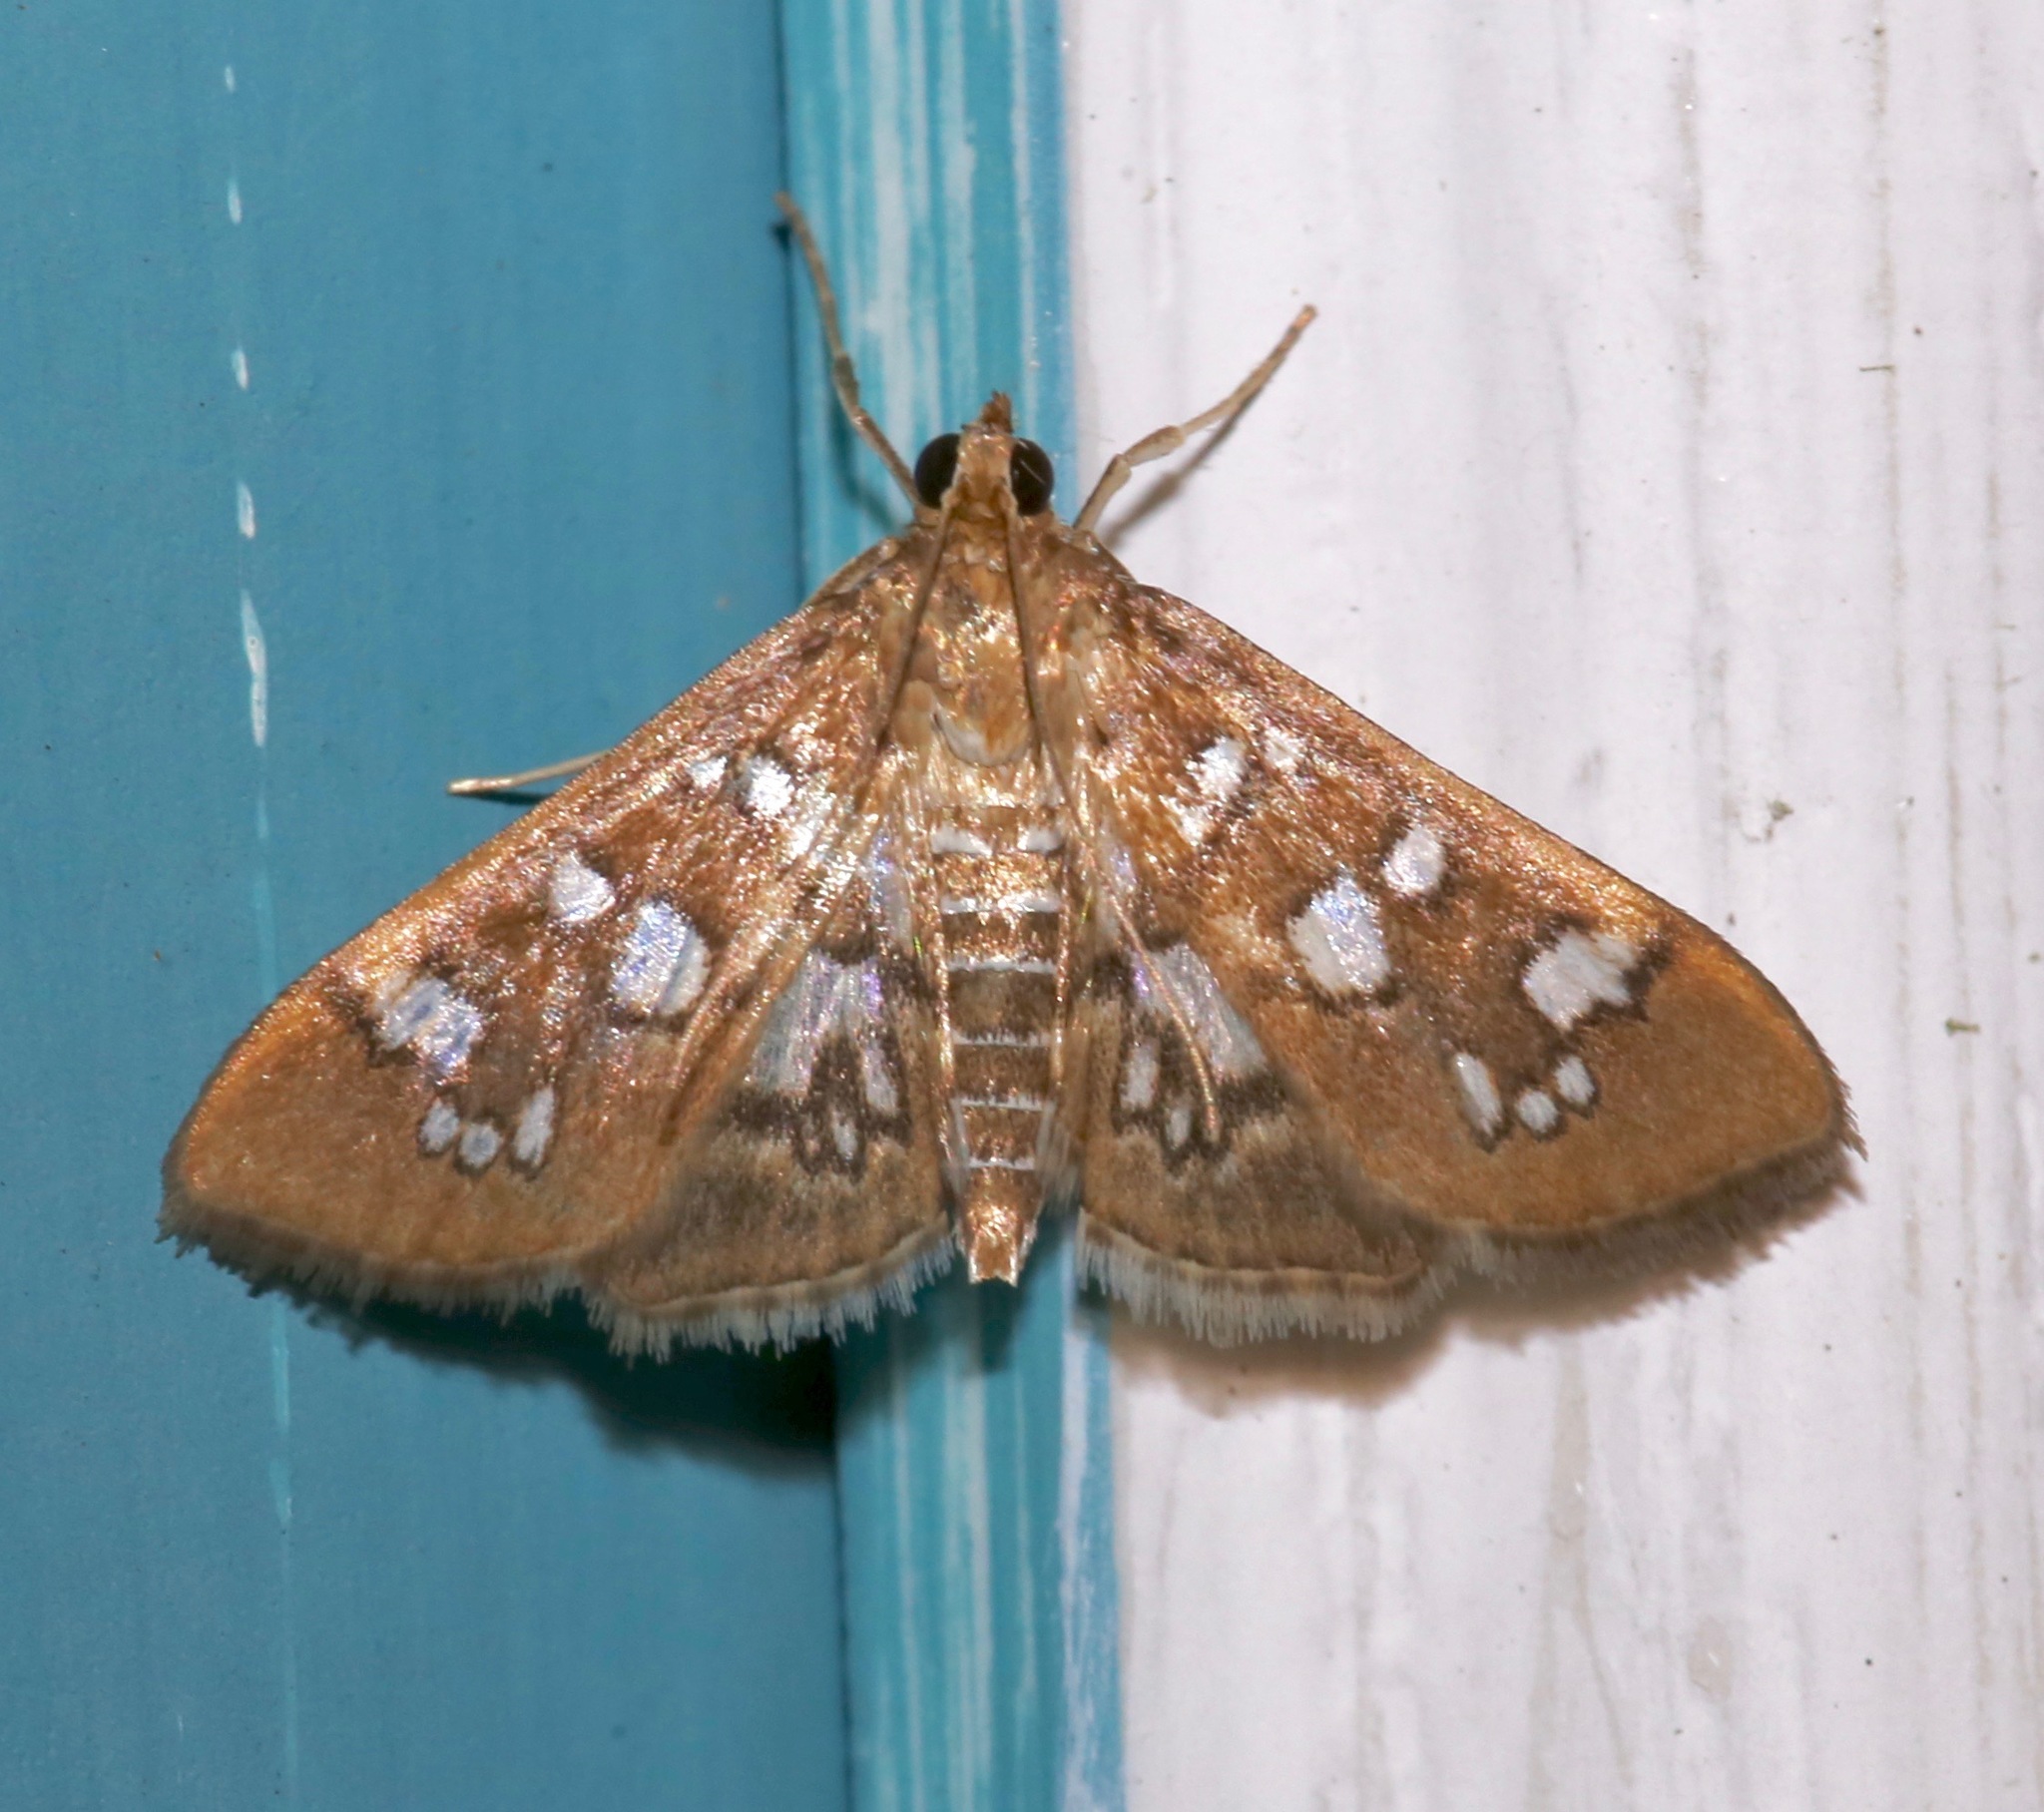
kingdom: Animalia
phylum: Arthropoda
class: Insecta
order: Lepidoptera
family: Crambidae
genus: Samea
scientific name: Samea baccatalis
